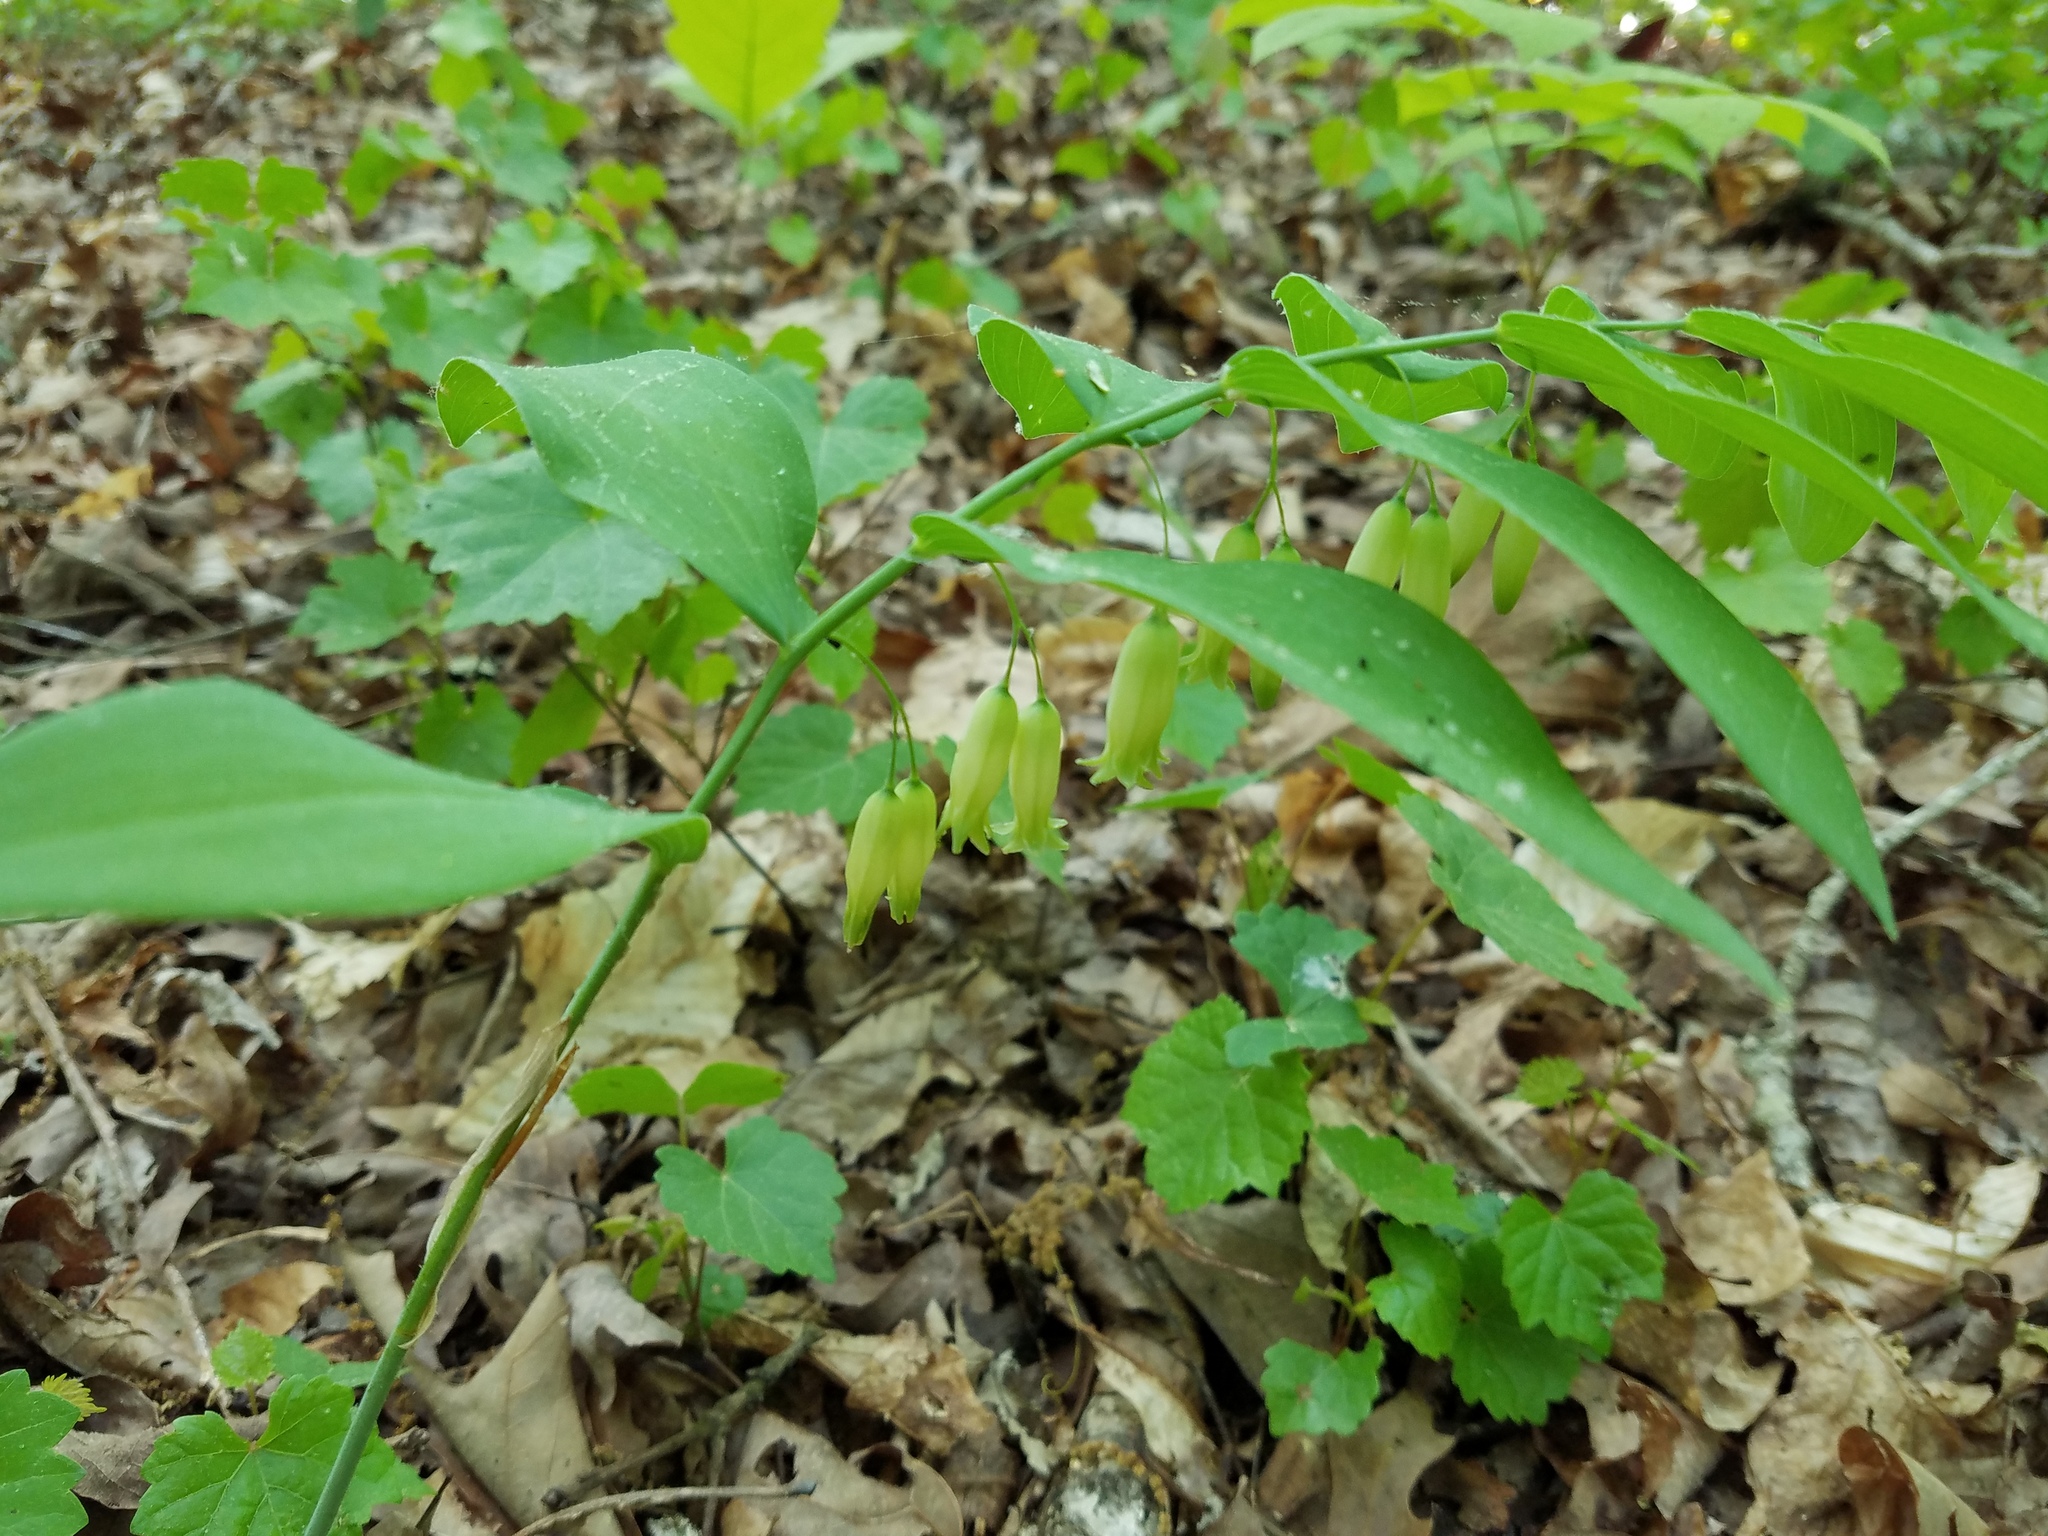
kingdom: Plantae
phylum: Tracheophyta
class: Liliopsida
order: Asparagales
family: Asparagaceae
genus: Polygonatum
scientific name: Polygonatum biflorum
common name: American solomon's-seal
